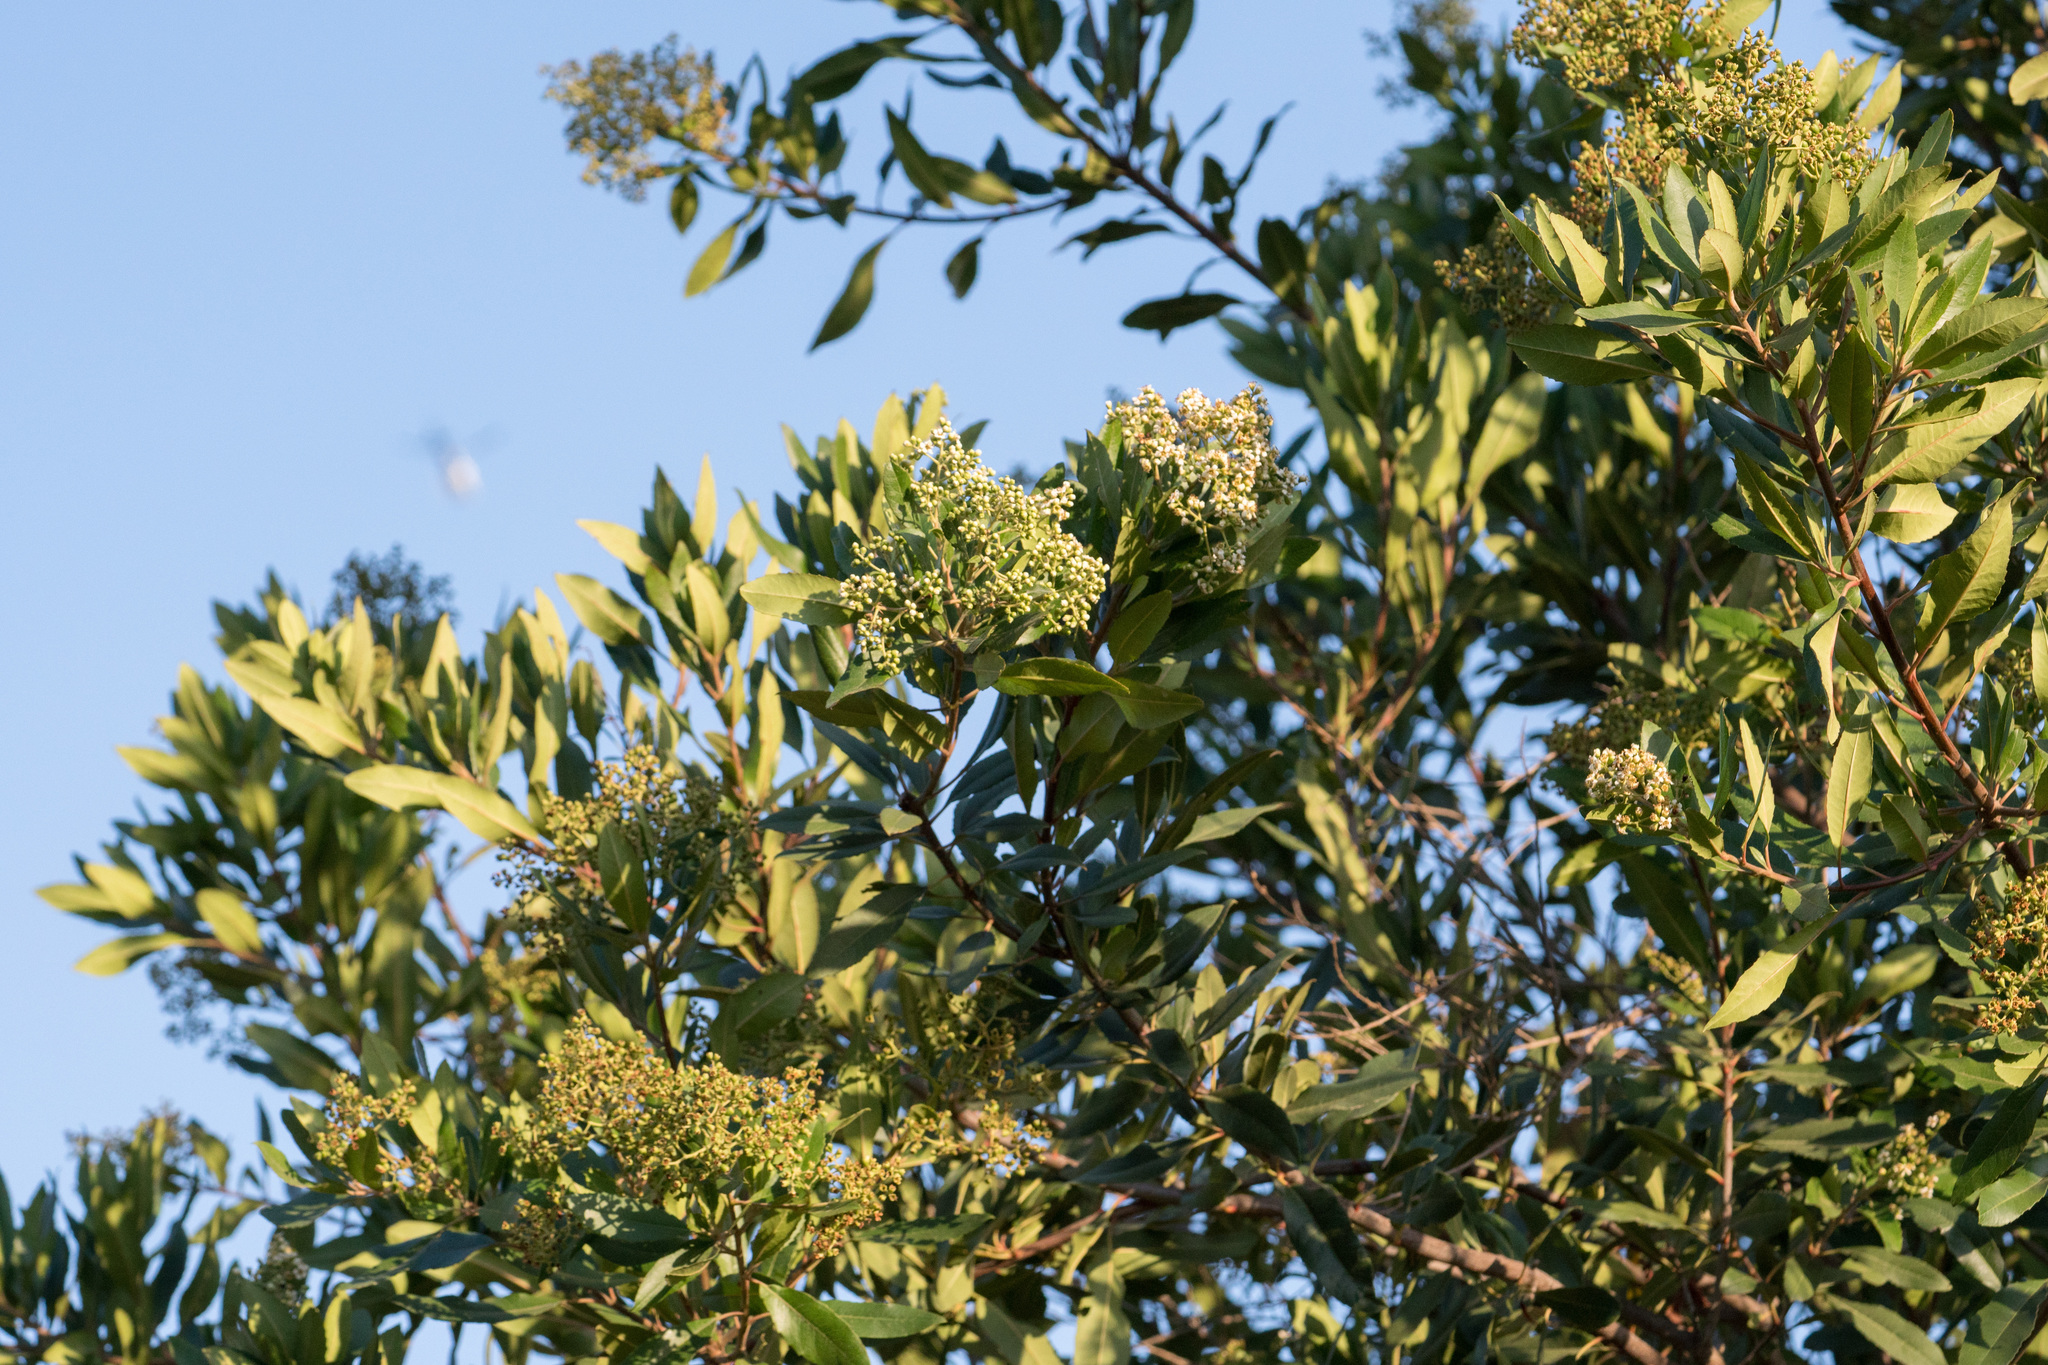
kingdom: Plantae
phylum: Tracheophyta
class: Magnoliopsida
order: Rosales
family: Rosaceae
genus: Heteromeles
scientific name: Heteromeles arbutifolia
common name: California-holly
